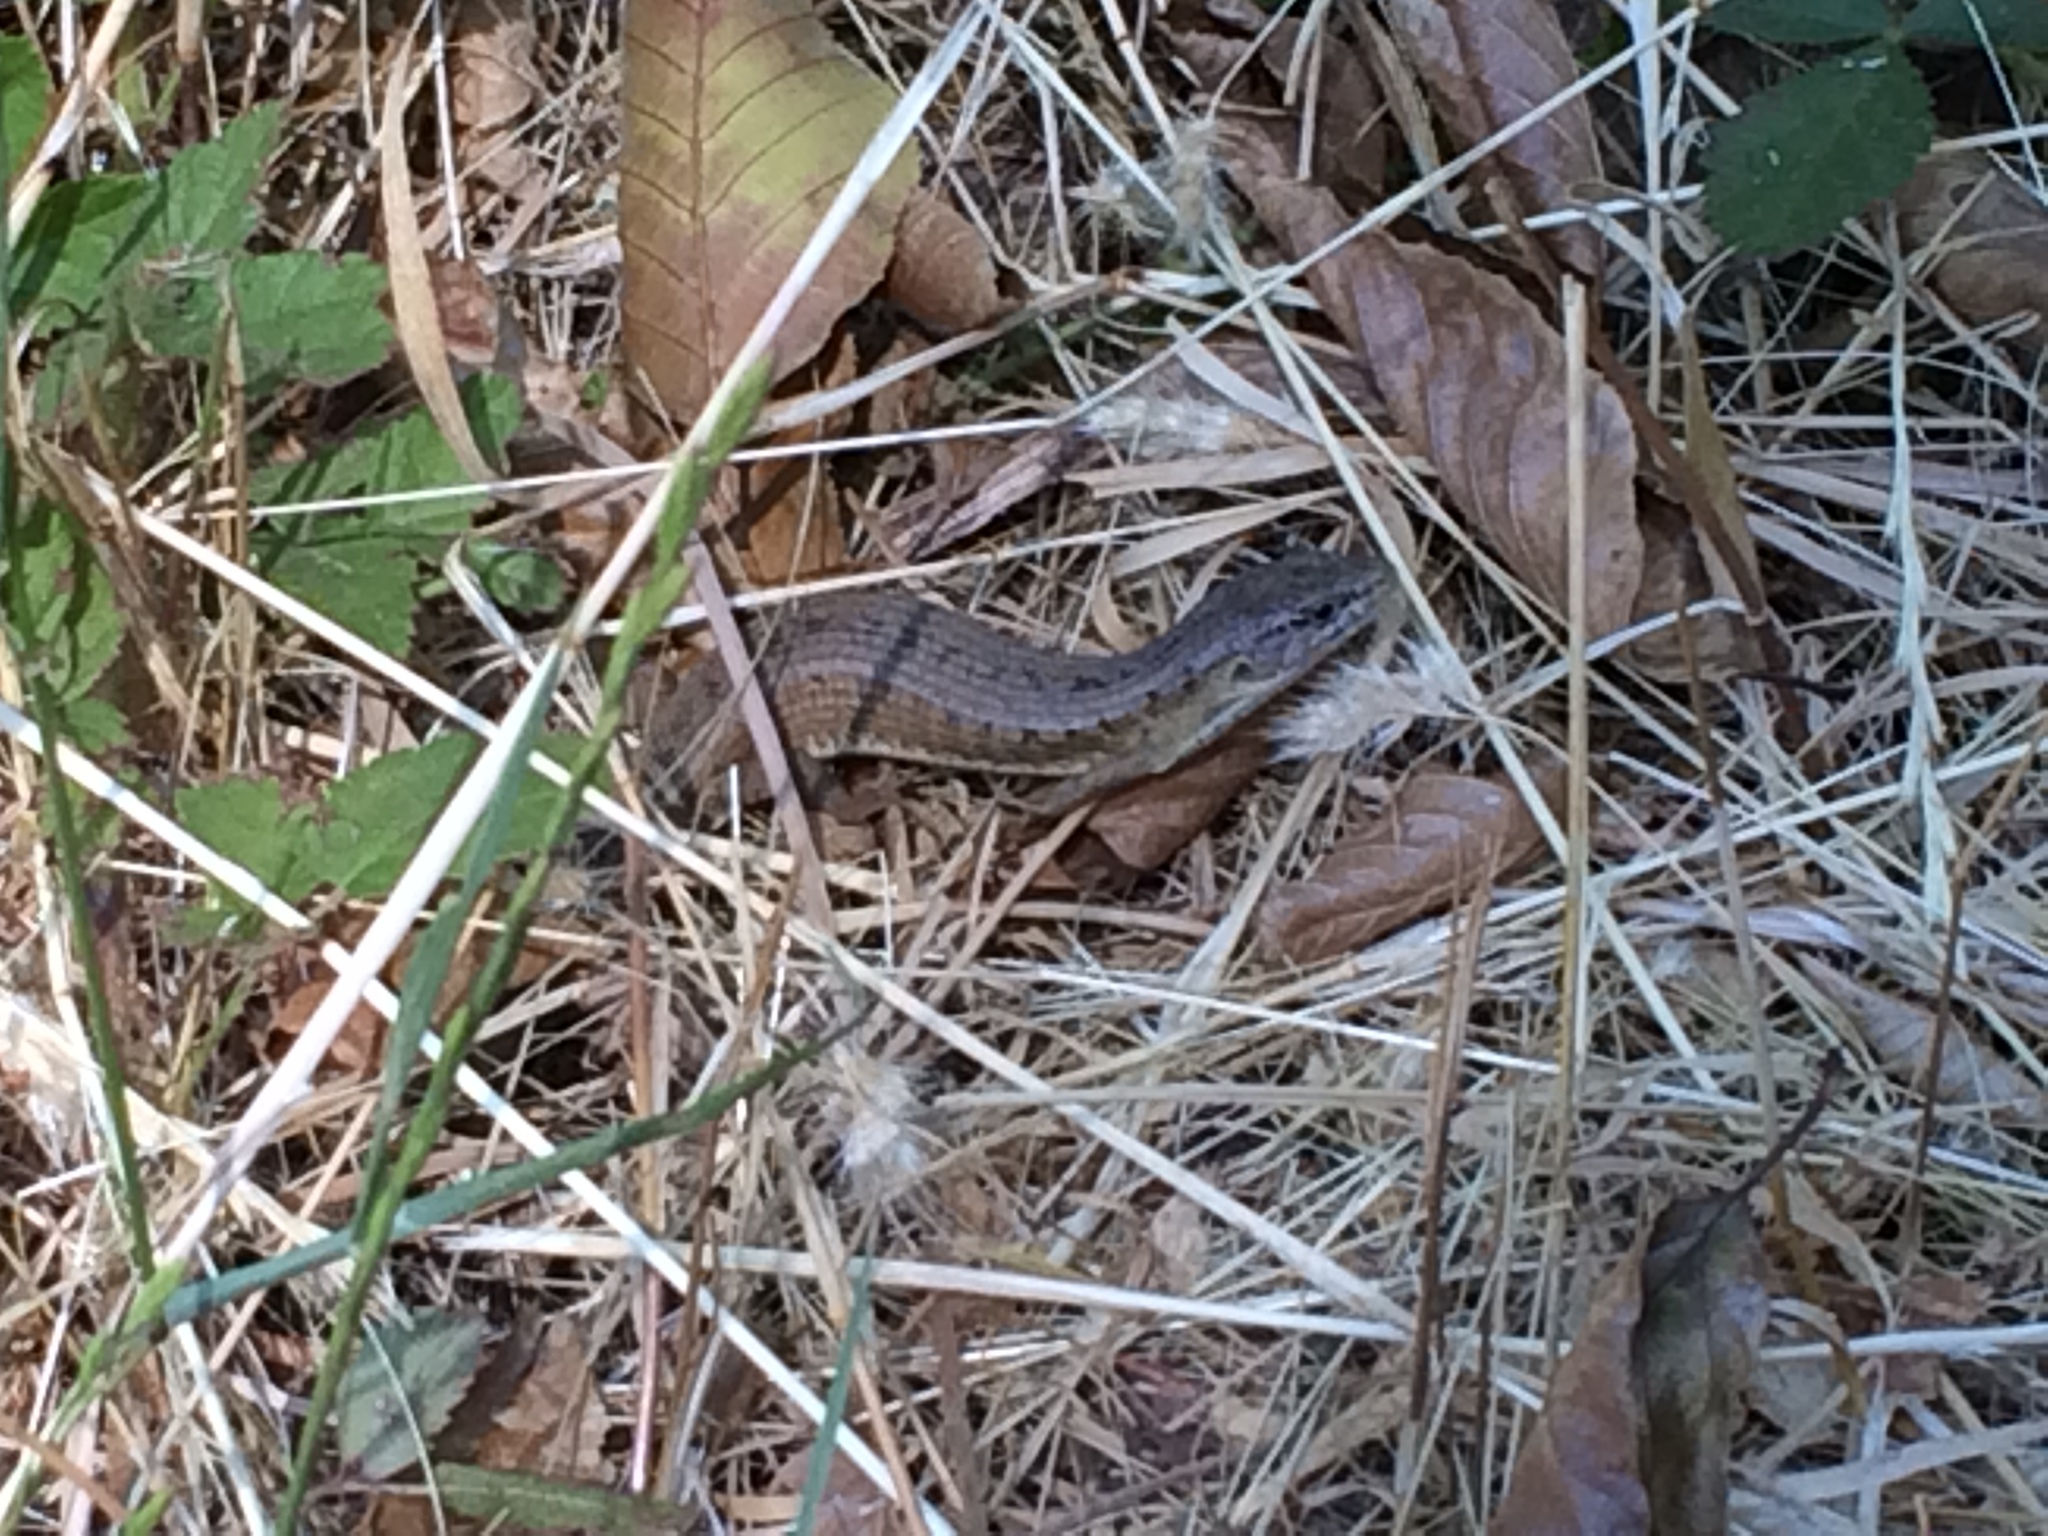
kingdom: Animalia
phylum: Chordata
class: Squamata
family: Anguidae
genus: Elgaria
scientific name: Elgaria coerulea
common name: Northern alligator lizard
